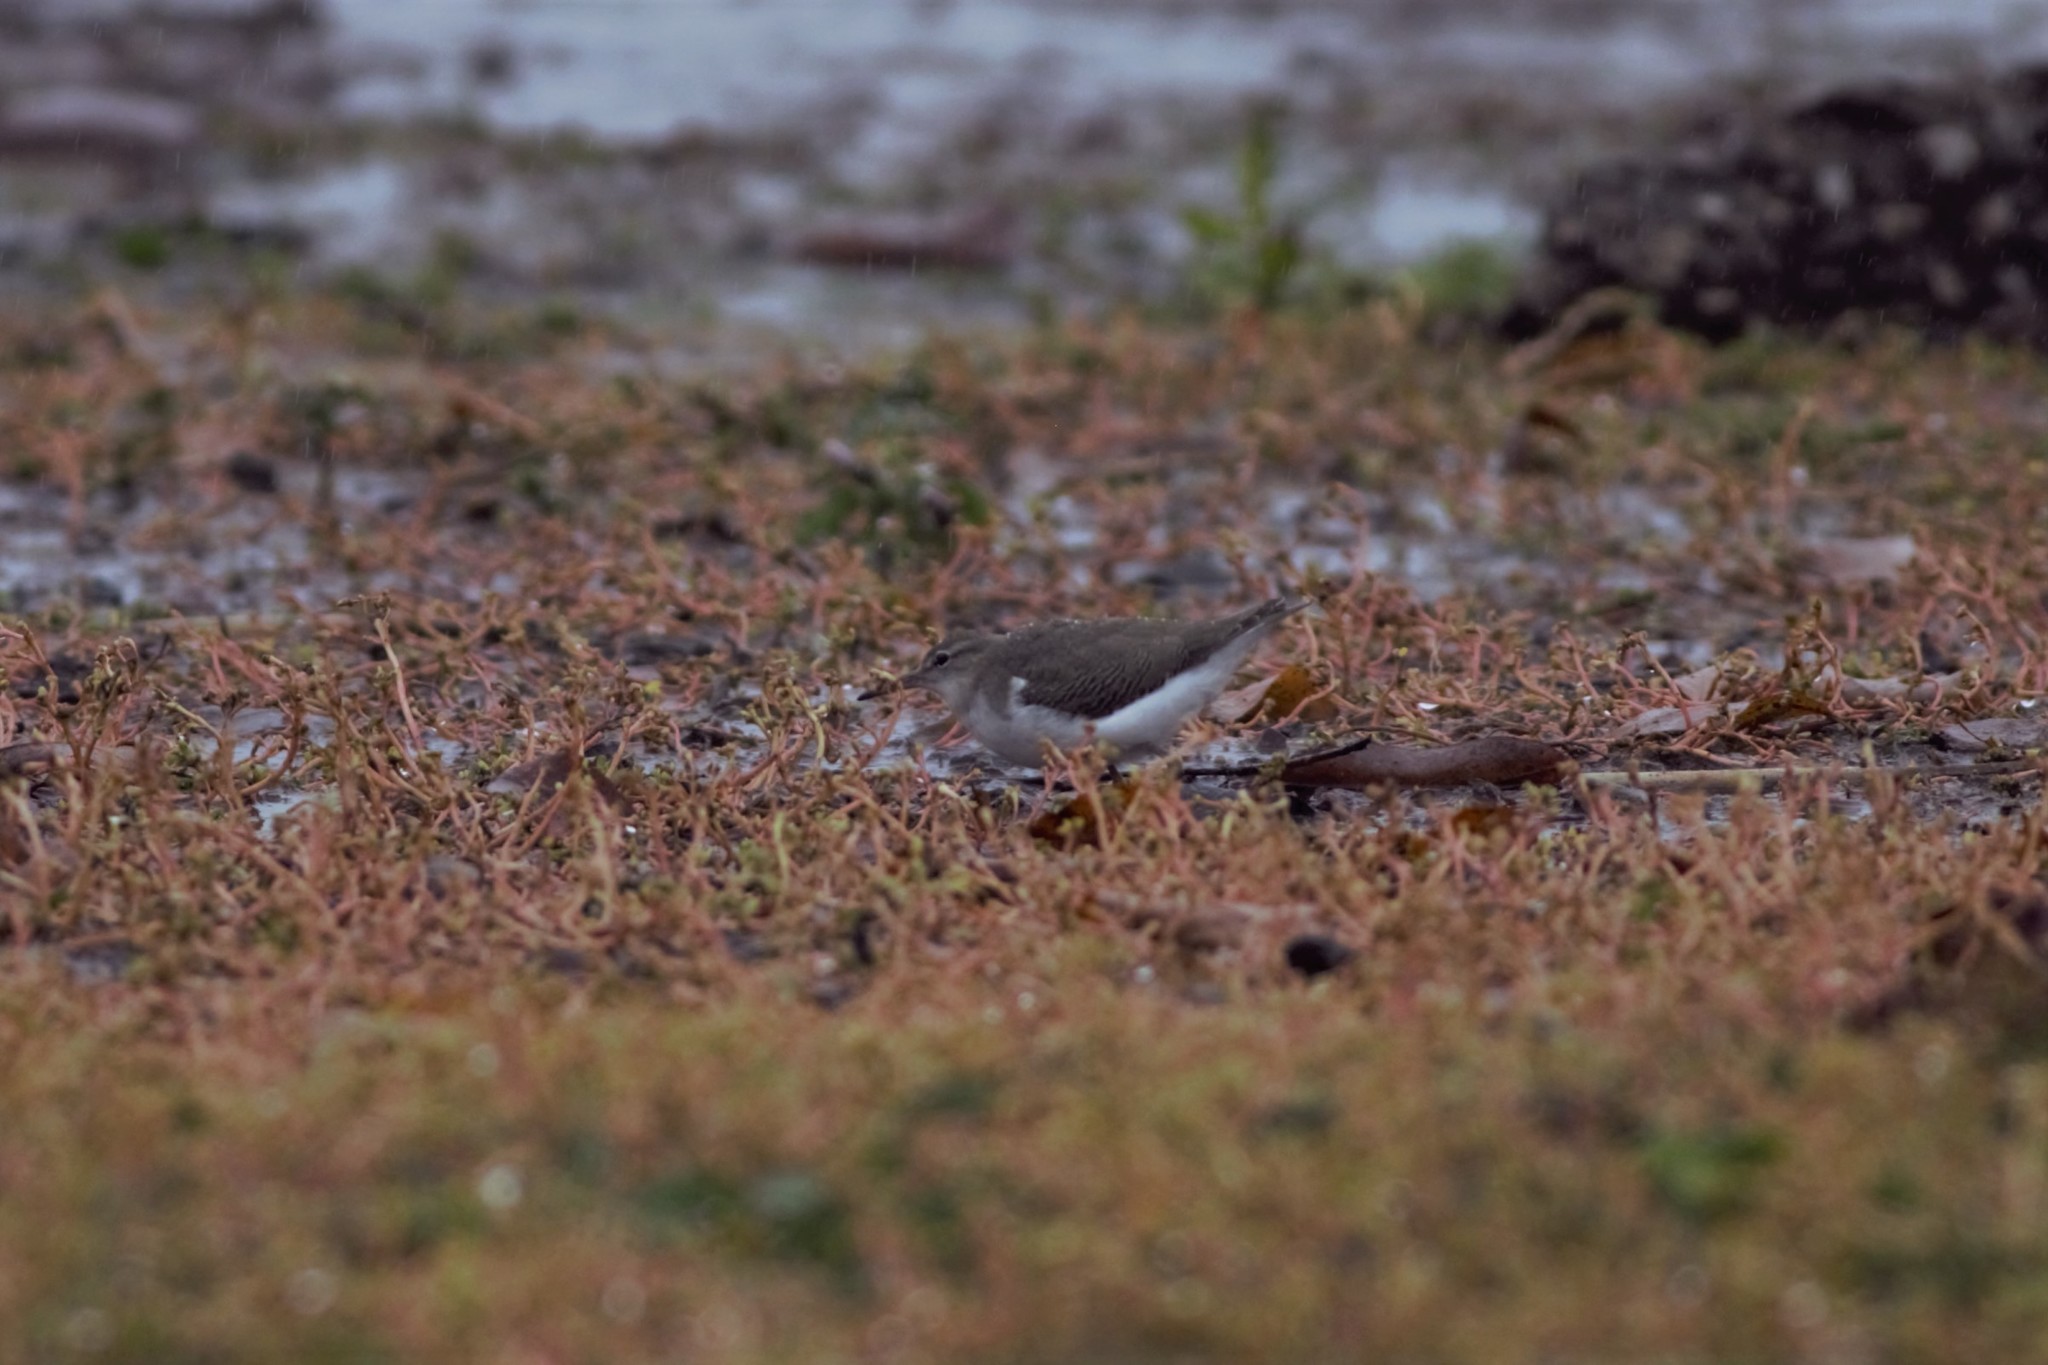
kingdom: Animalia
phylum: Chordata
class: Aves
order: Charadriiformes
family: Scolopacidae
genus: Actitis
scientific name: Actitis macularius
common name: Spotted sandpiper
